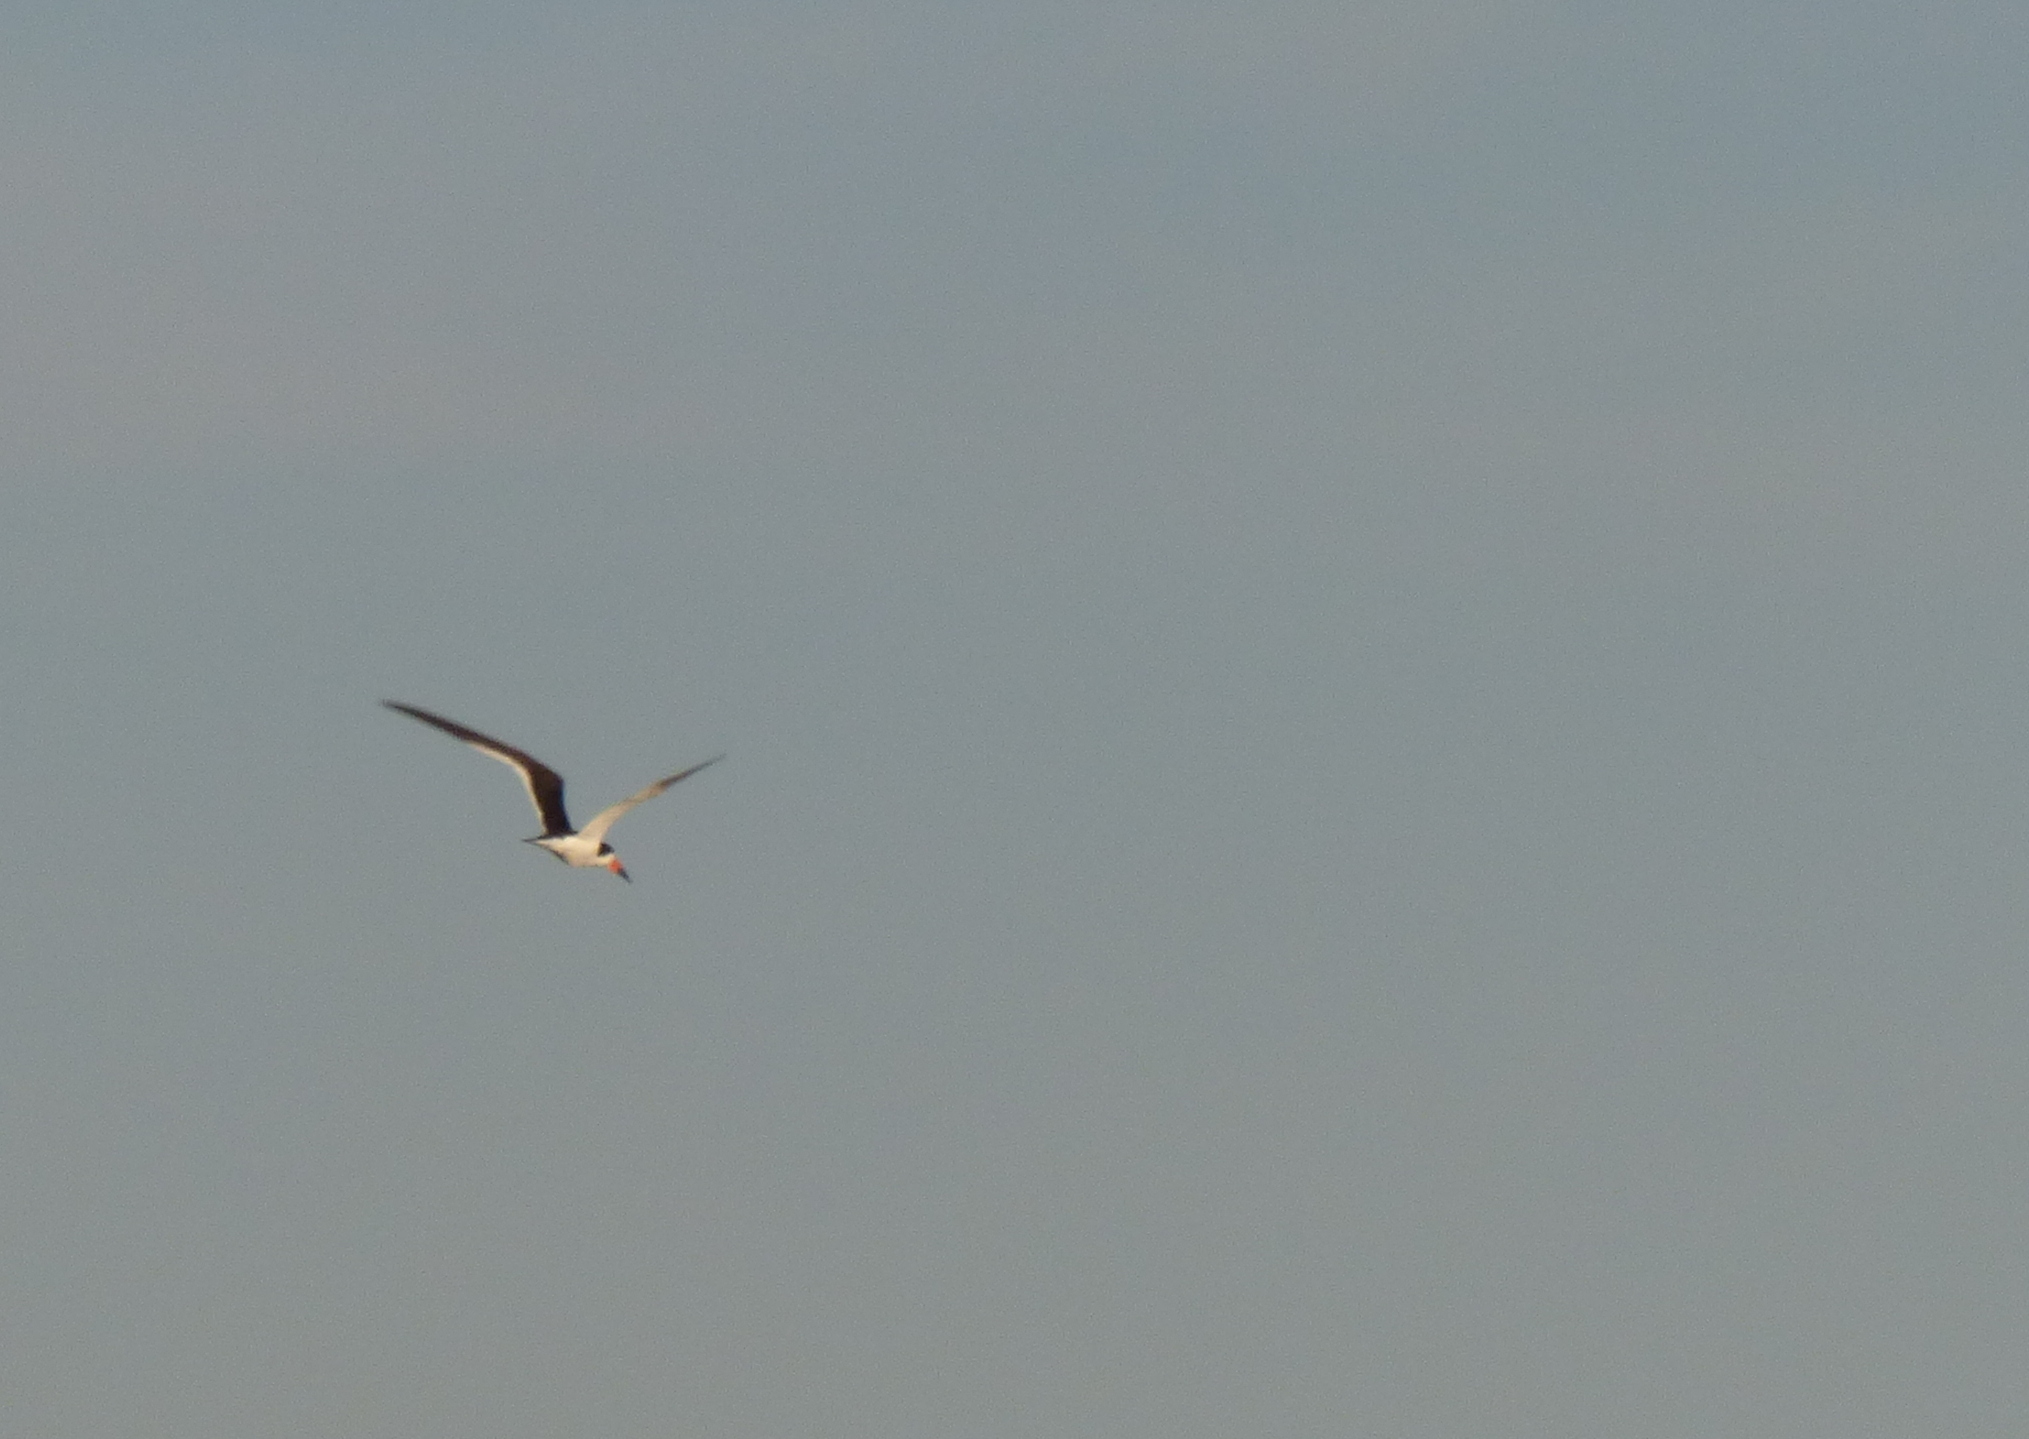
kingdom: Animalia
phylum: Chordata
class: Aves
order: Charadriiformes
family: Laridae
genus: Rynchops
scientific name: Rynchops niger
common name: Black skimmer
